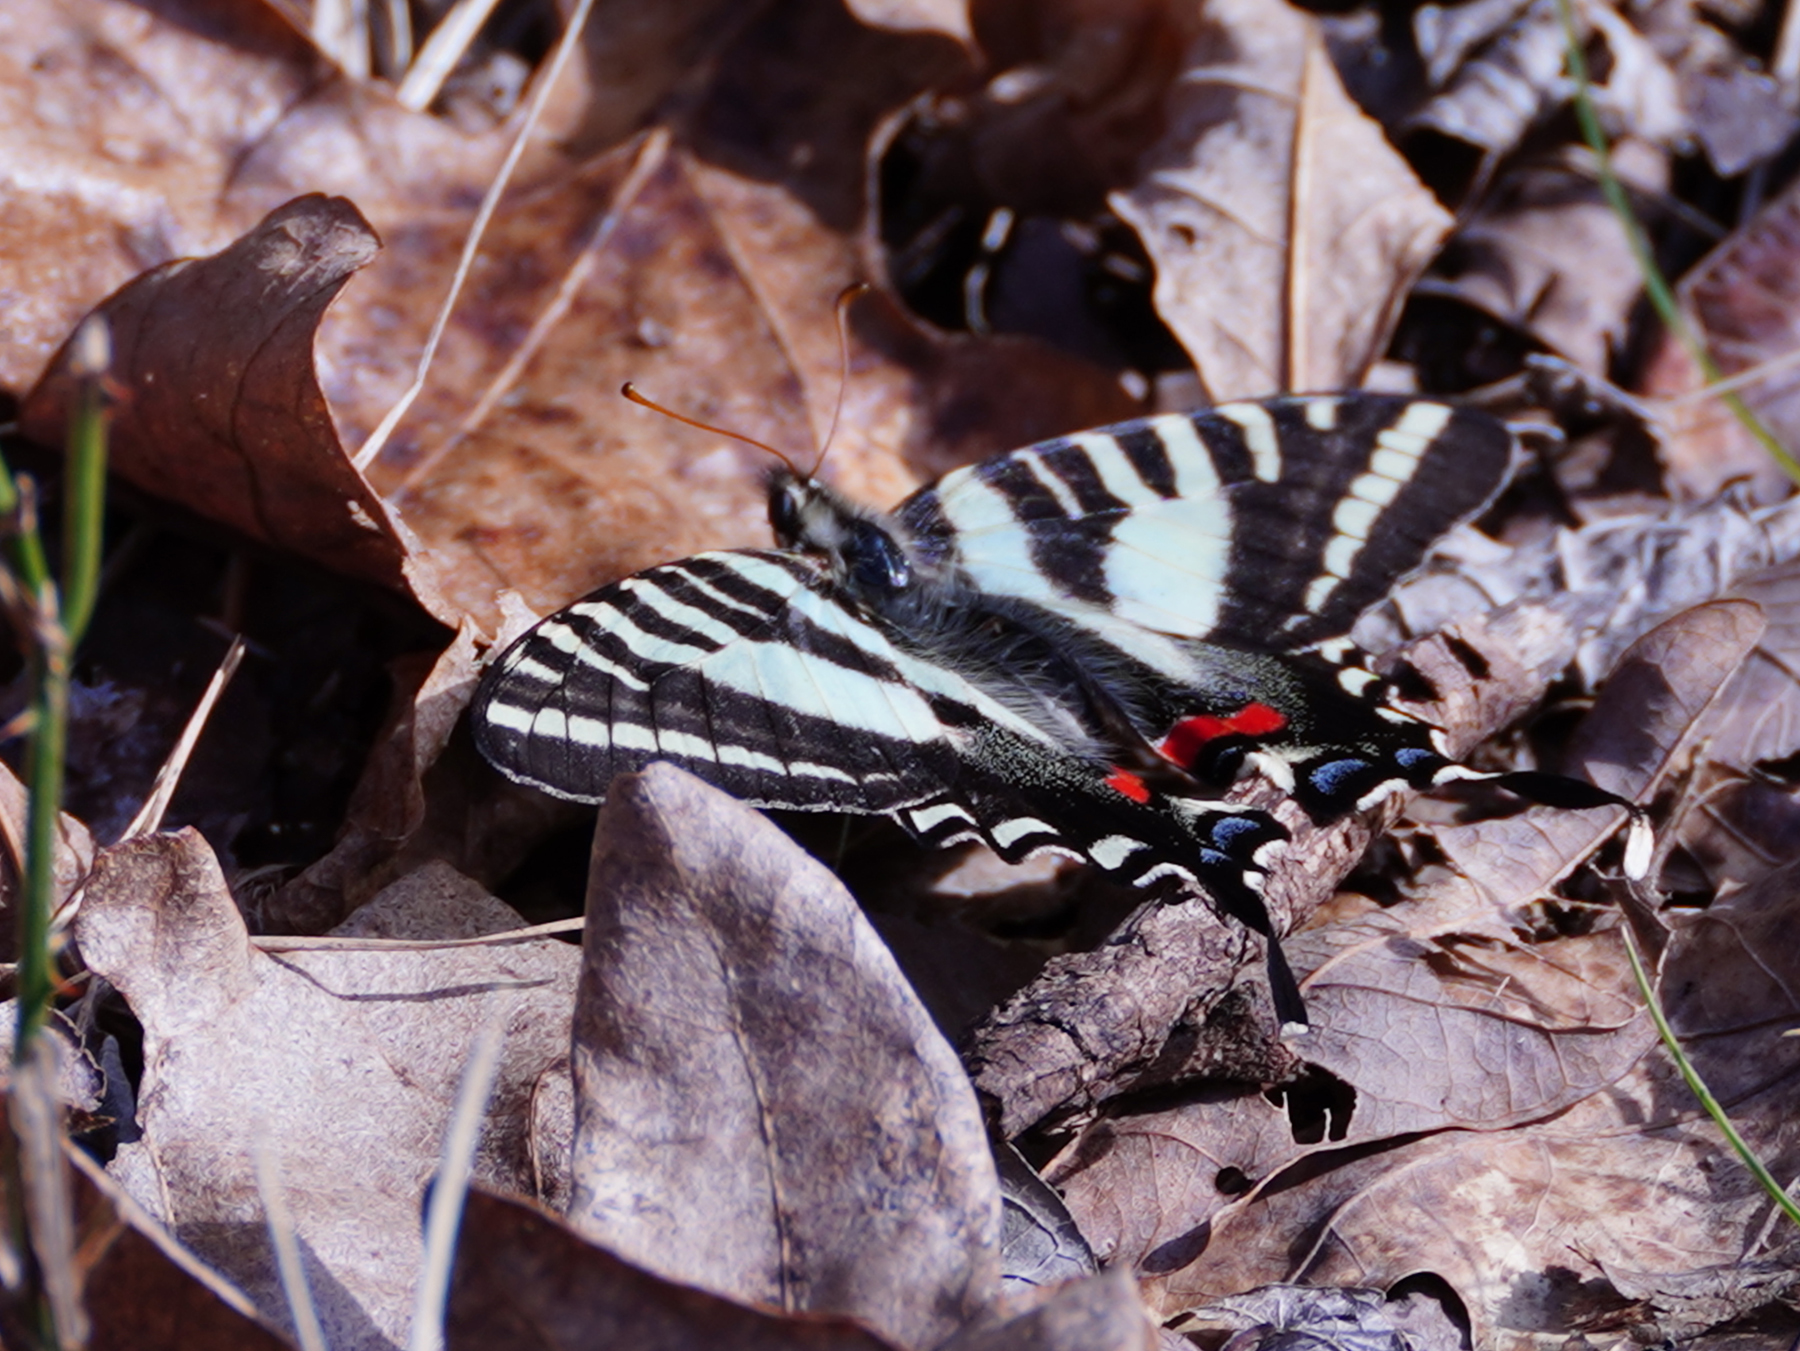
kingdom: Animalia
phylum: Arthropoda
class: Insecta
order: Lepidoptera
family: Papilionidae
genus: Protographium
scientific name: Protographium marcellus
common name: Zebra swallowtail
